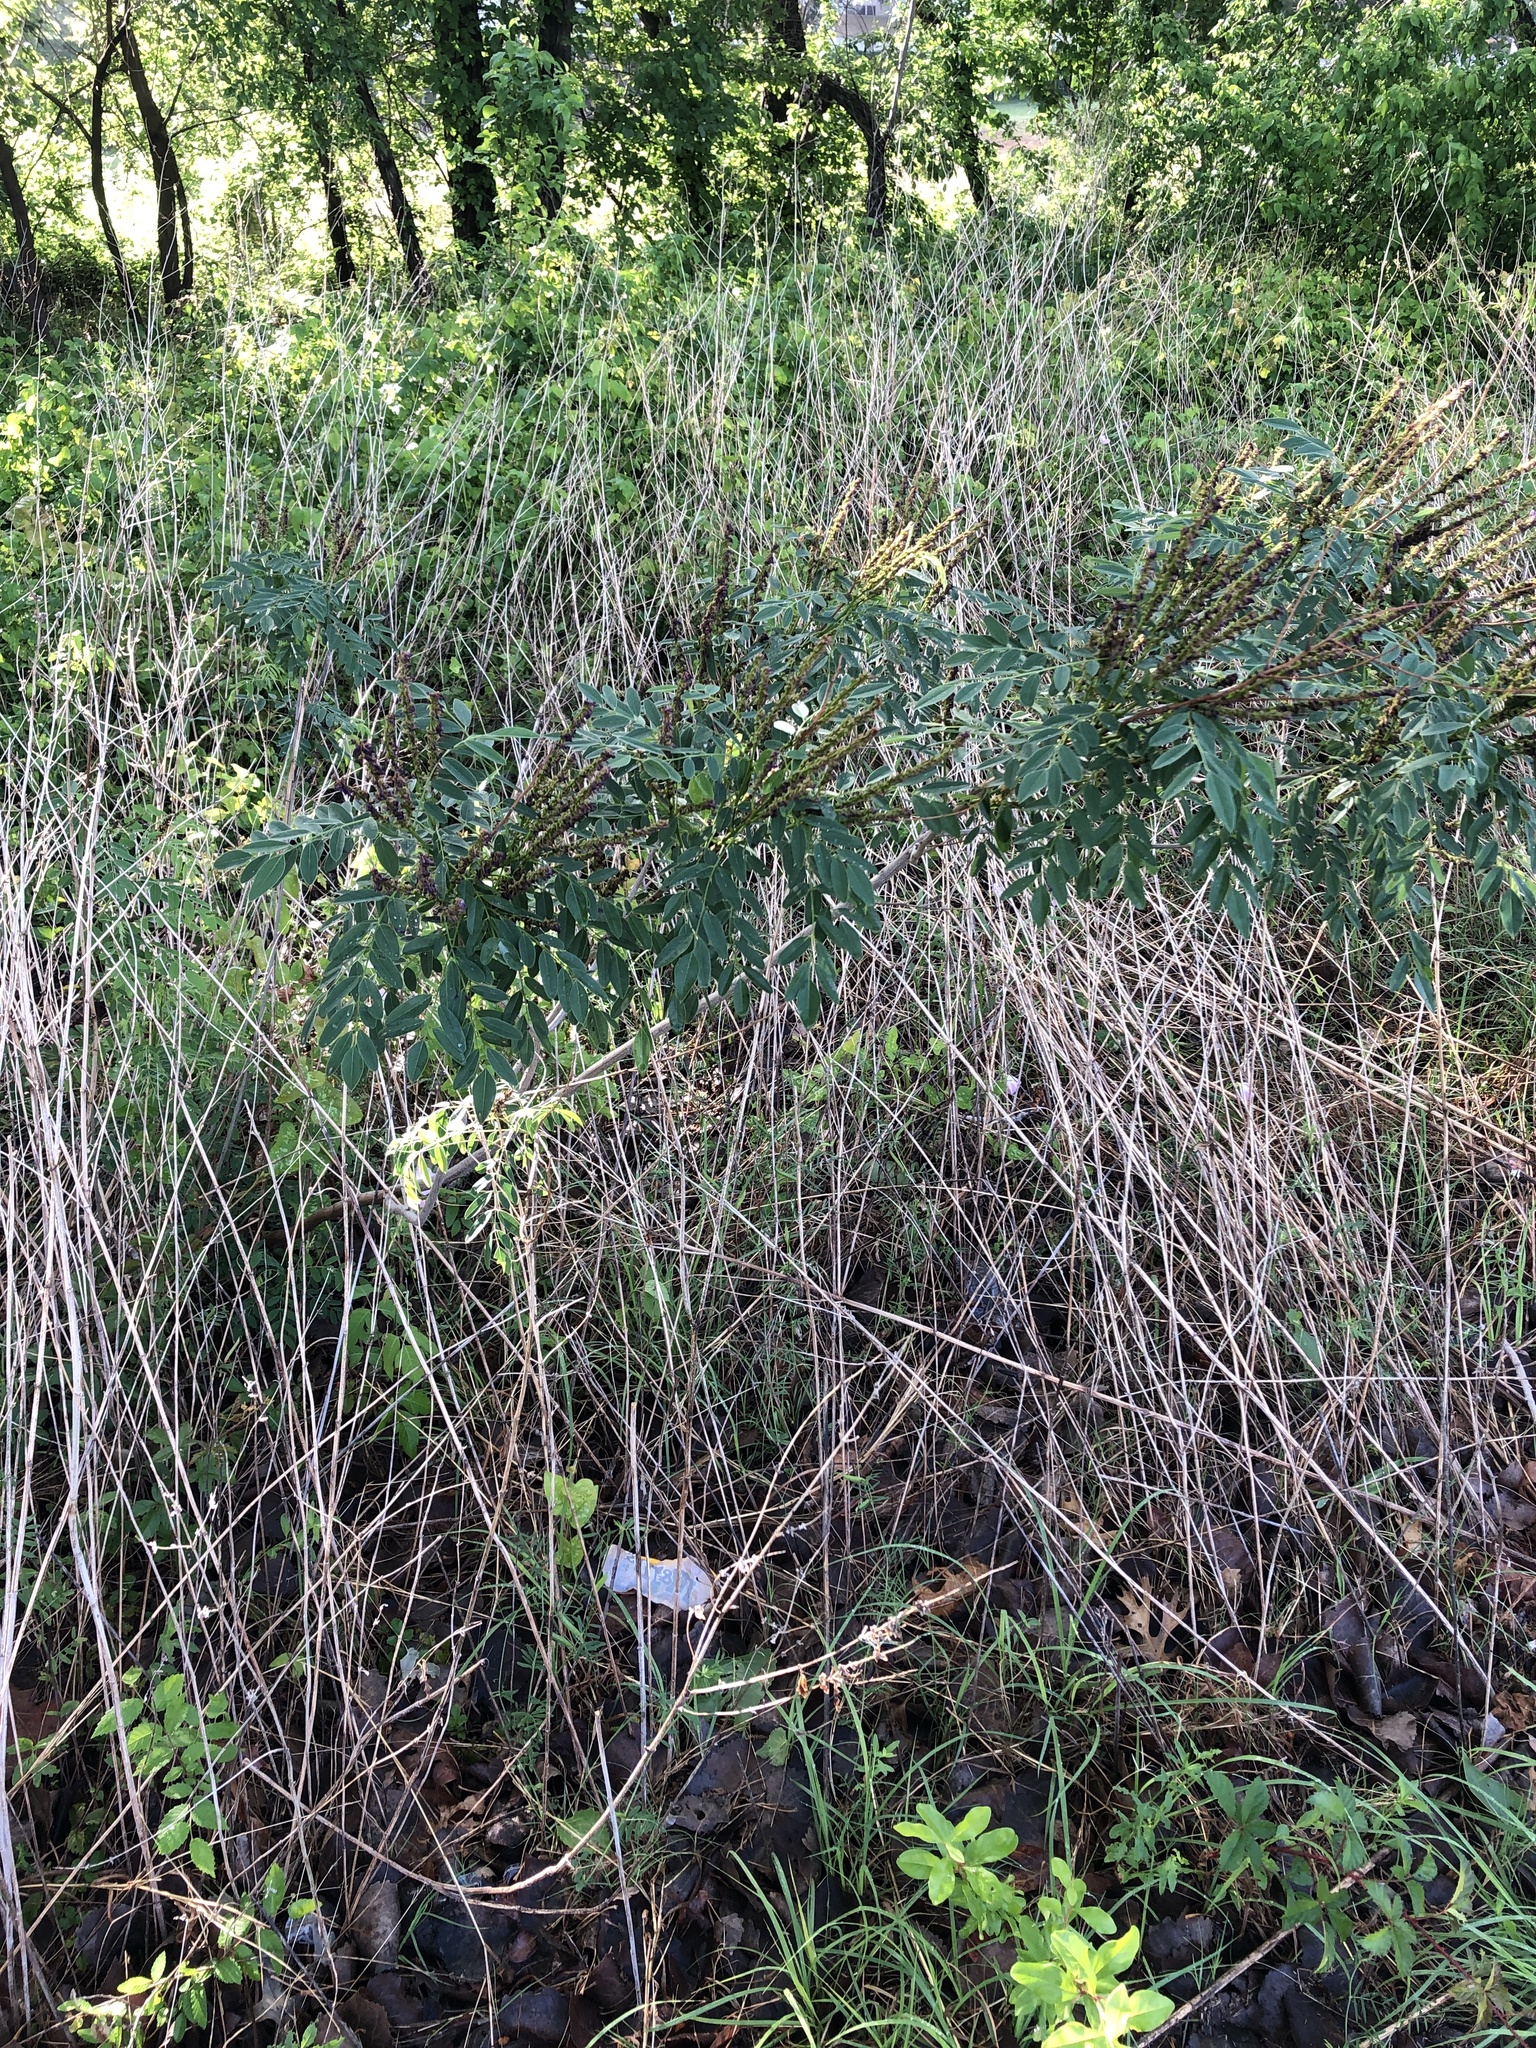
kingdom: Plantae
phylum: Tracheophyta
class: Magnoliopsida
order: Fabales
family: Fabaceae
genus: Amorpha
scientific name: Amorpha fruticosa
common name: False indigo
